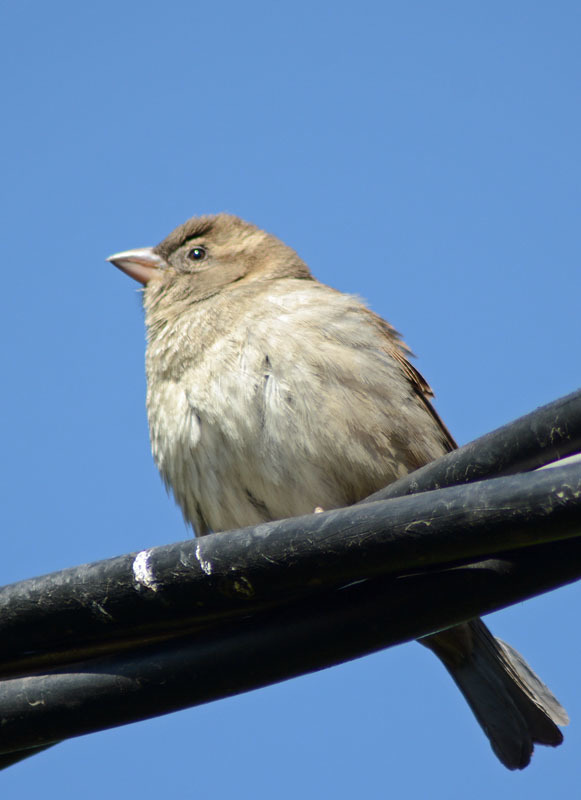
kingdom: Animalia
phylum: Chordata
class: Aves
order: Passeriformes
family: Passeridae
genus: Passer
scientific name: Passer domesticus
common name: House sparrow
